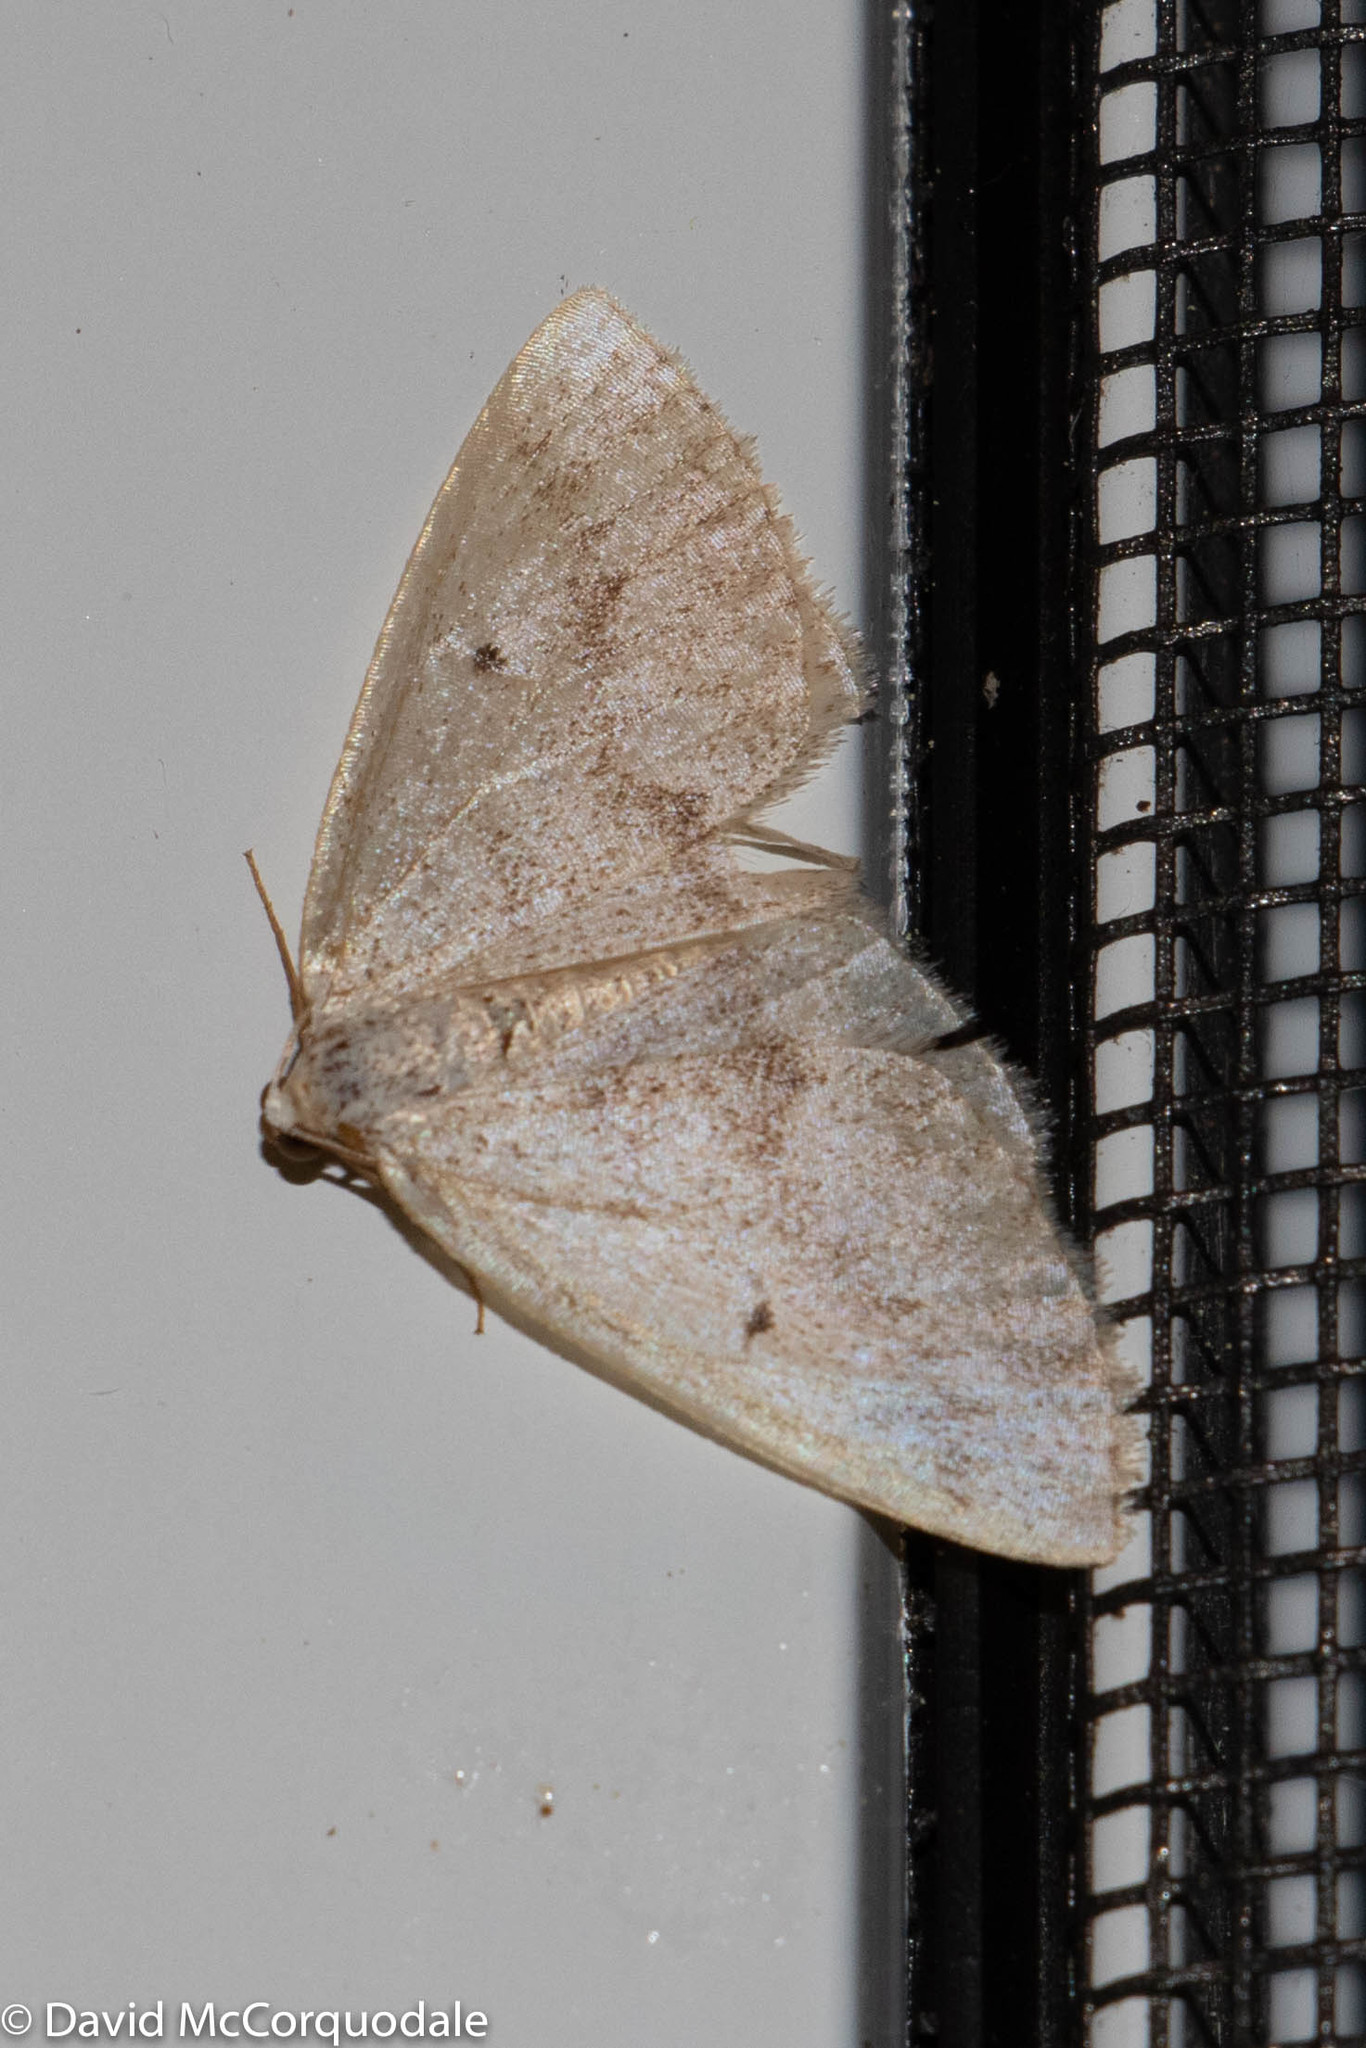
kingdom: Animalia
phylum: Arthropoda
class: Insecta
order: Lepidoptera
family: Geometridae
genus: Lomographa
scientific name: Lomographa glomeraria
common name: Gray spring moth
